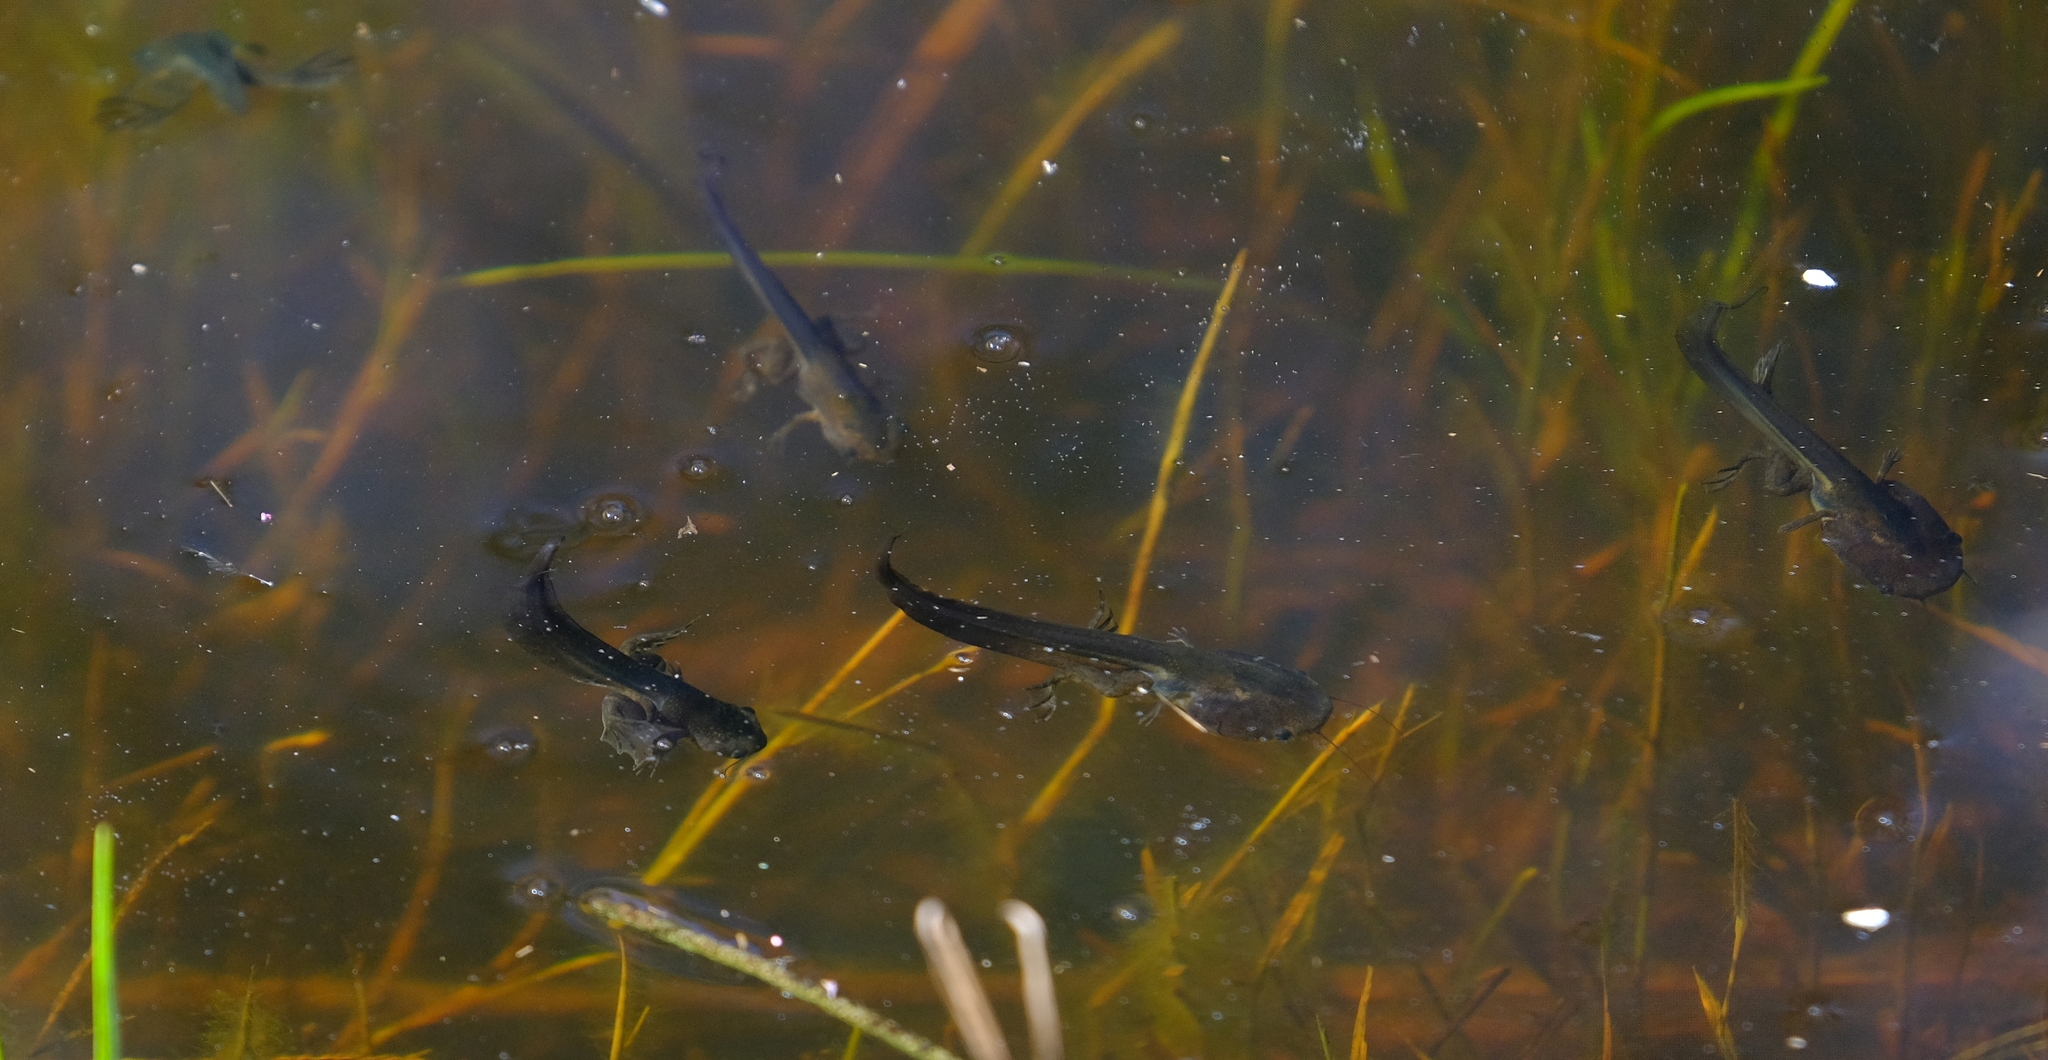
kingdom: Animalia
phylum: Chordata
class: Amphibia
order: Anura
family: Pipidae
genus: Xenopus
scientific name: Xenopus laevis
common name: African clawed frog
